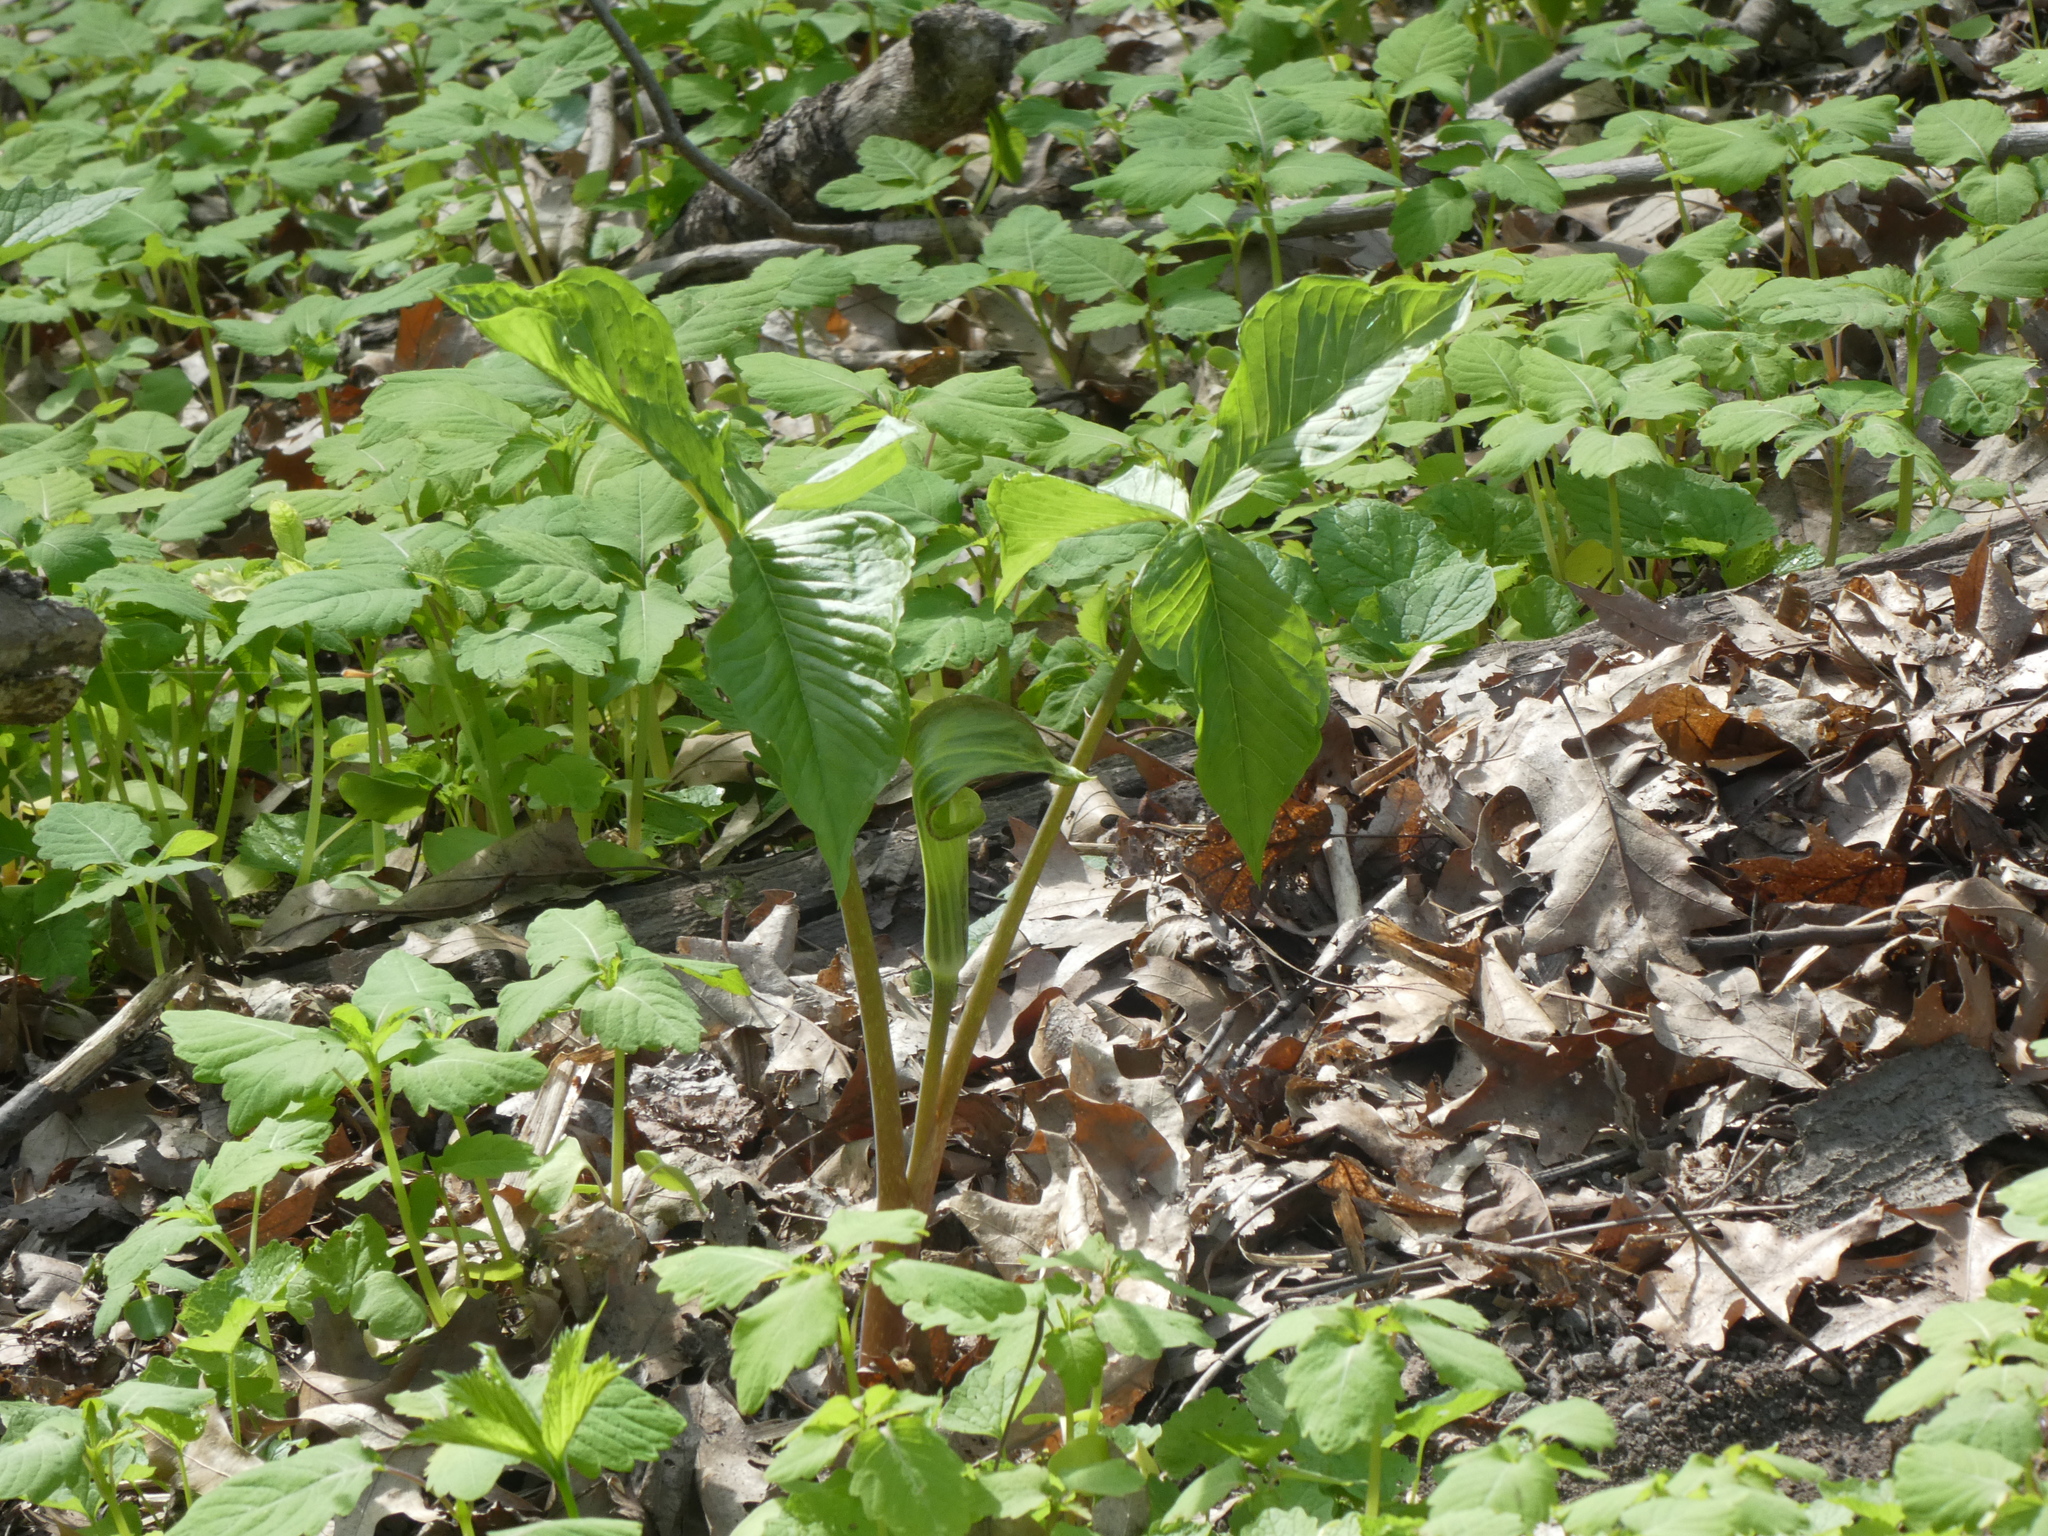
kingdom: Plantae
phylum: Tracheophyta
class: Liliopsida
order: Alismatales
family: Araceae
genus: Arisaema
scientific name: Arisaema triphyllum
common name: Jack-in-the-pulpit
